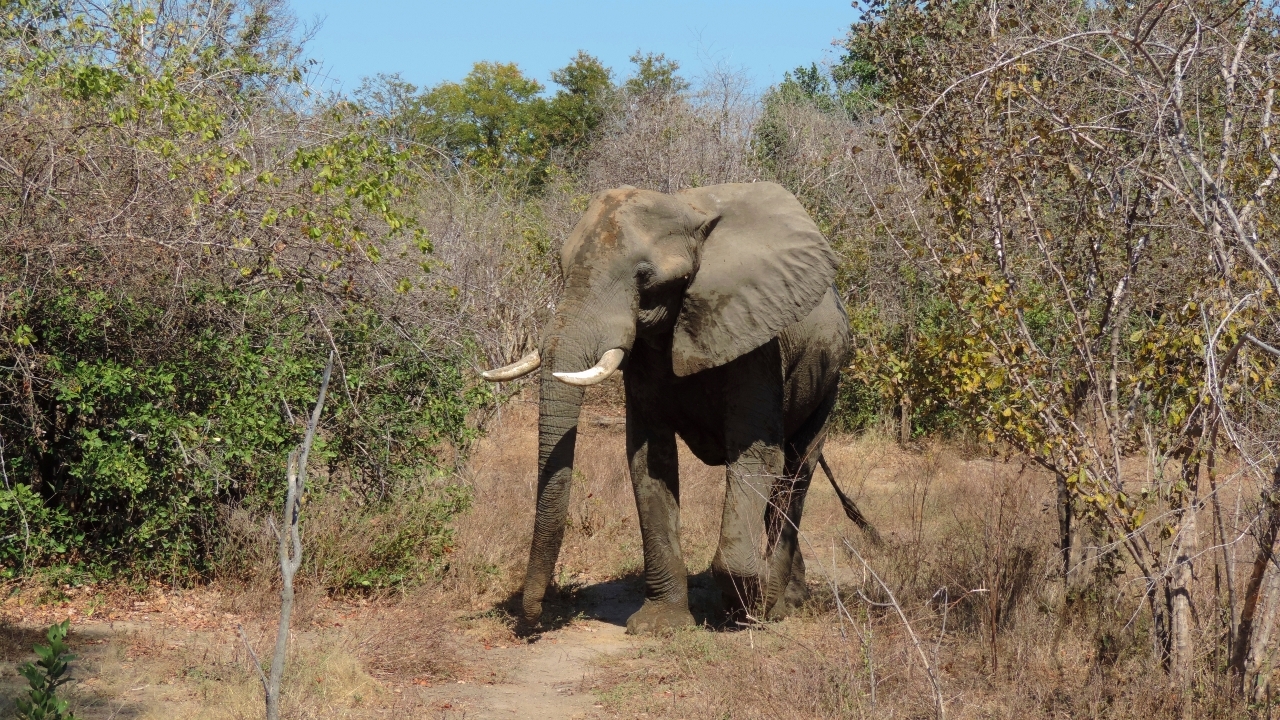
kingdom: Animalia
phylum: Chordata
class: Mammalia
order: Proboscidea
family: Elephantidae
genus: Loxodonta
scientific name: Loxodonta africana
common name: African elephant
